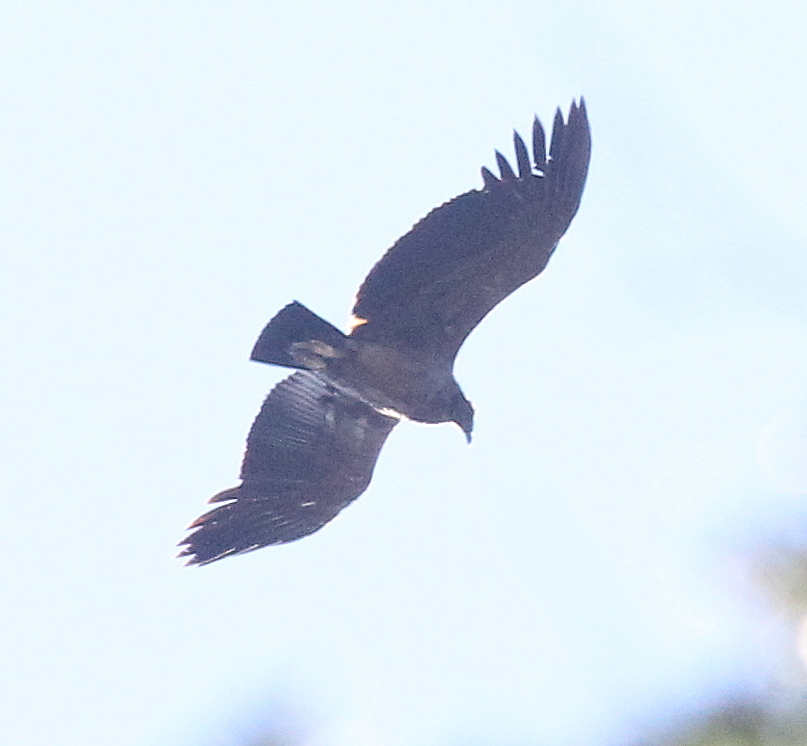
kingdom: Animalia
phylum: Chordata
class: Aves
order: Accipitriformes
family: Cathartidae
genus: Vultur
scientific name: Vultur gryphus
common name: Andean condor
